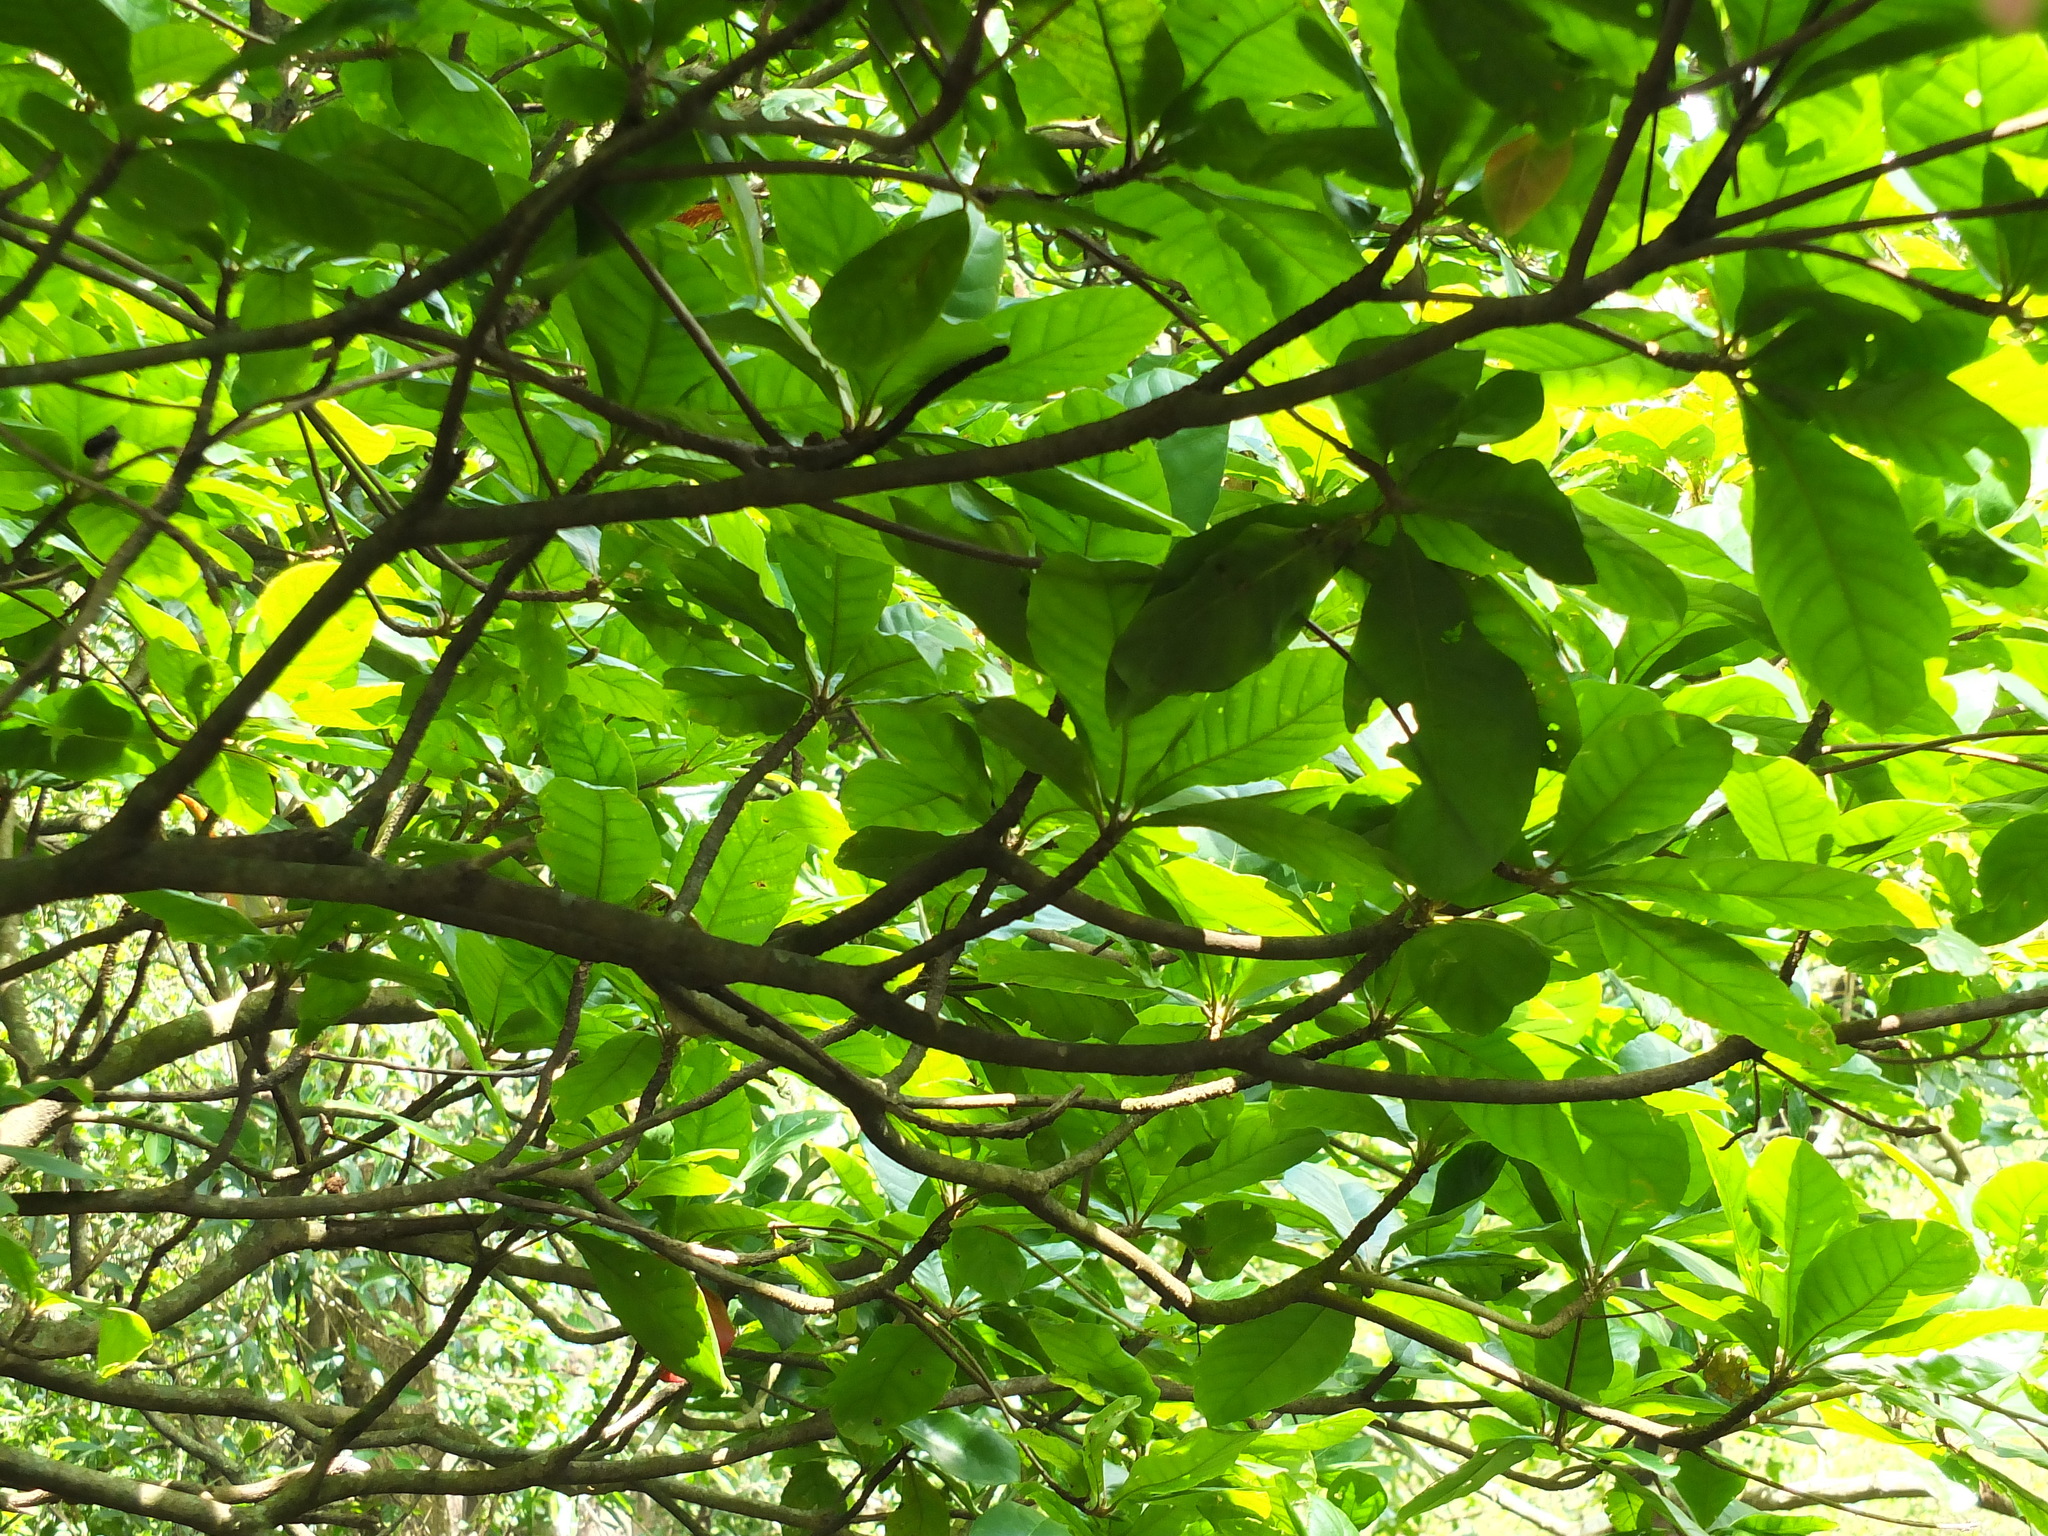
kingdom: Plantae
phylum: Tracheophyta
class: Magnoliopsida
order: Oxalidales
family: Elaeocarpaceae
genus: Elaeocarpus
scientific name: Elaeocarpus tuberculatus
